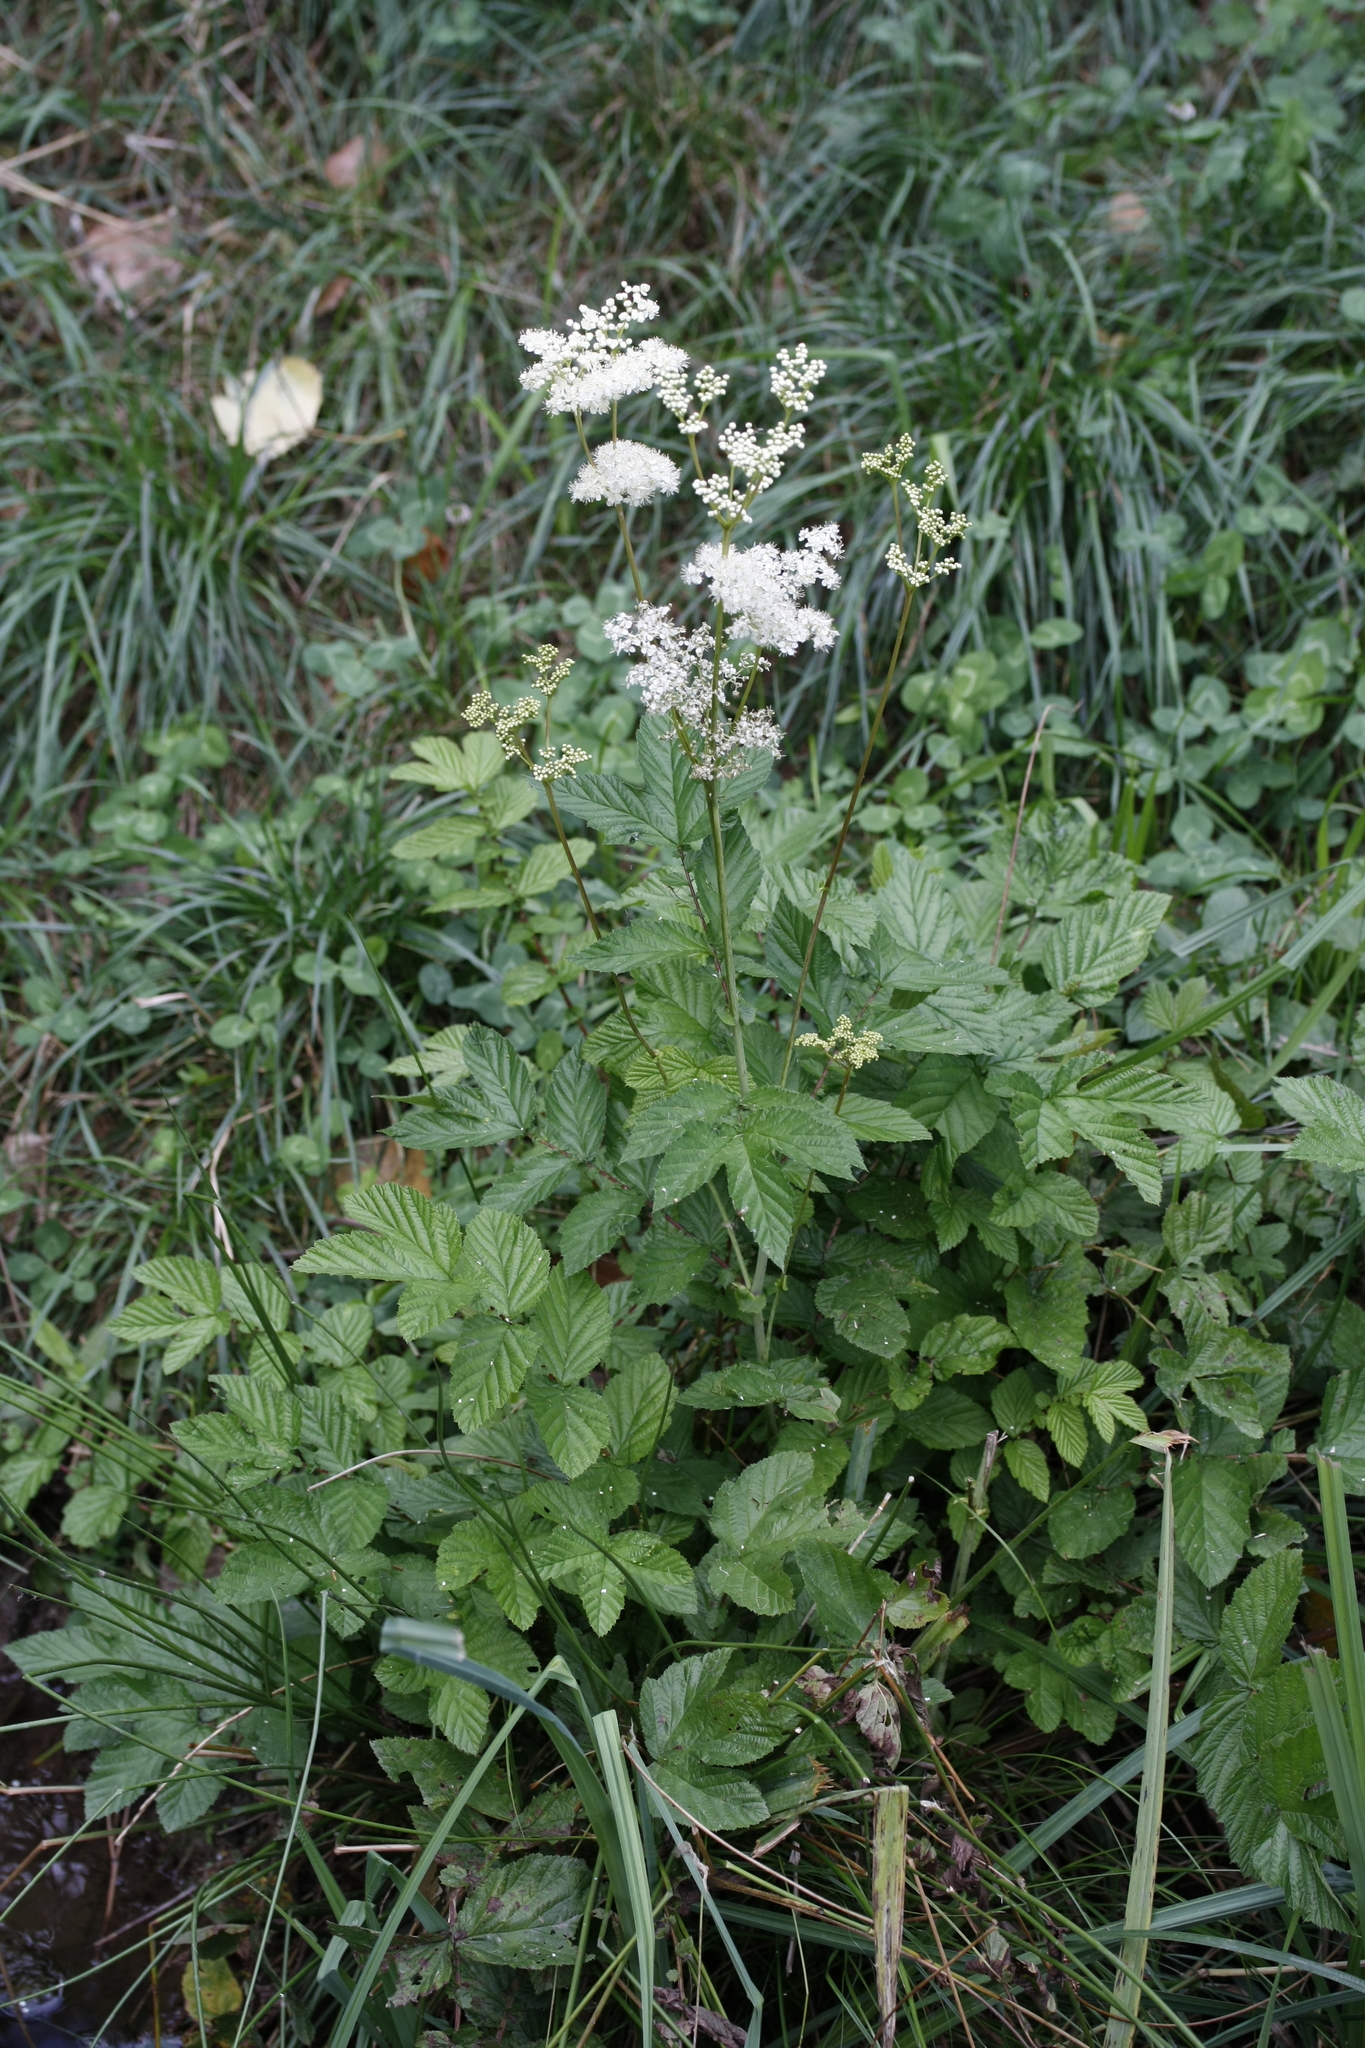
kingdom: Plantae
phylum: Tracheophyta
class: Magnoliopsida
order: Rosales
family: Rosaceae
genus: Filipendula
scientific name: Filipendula ulmaria
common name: Meadowsweet
